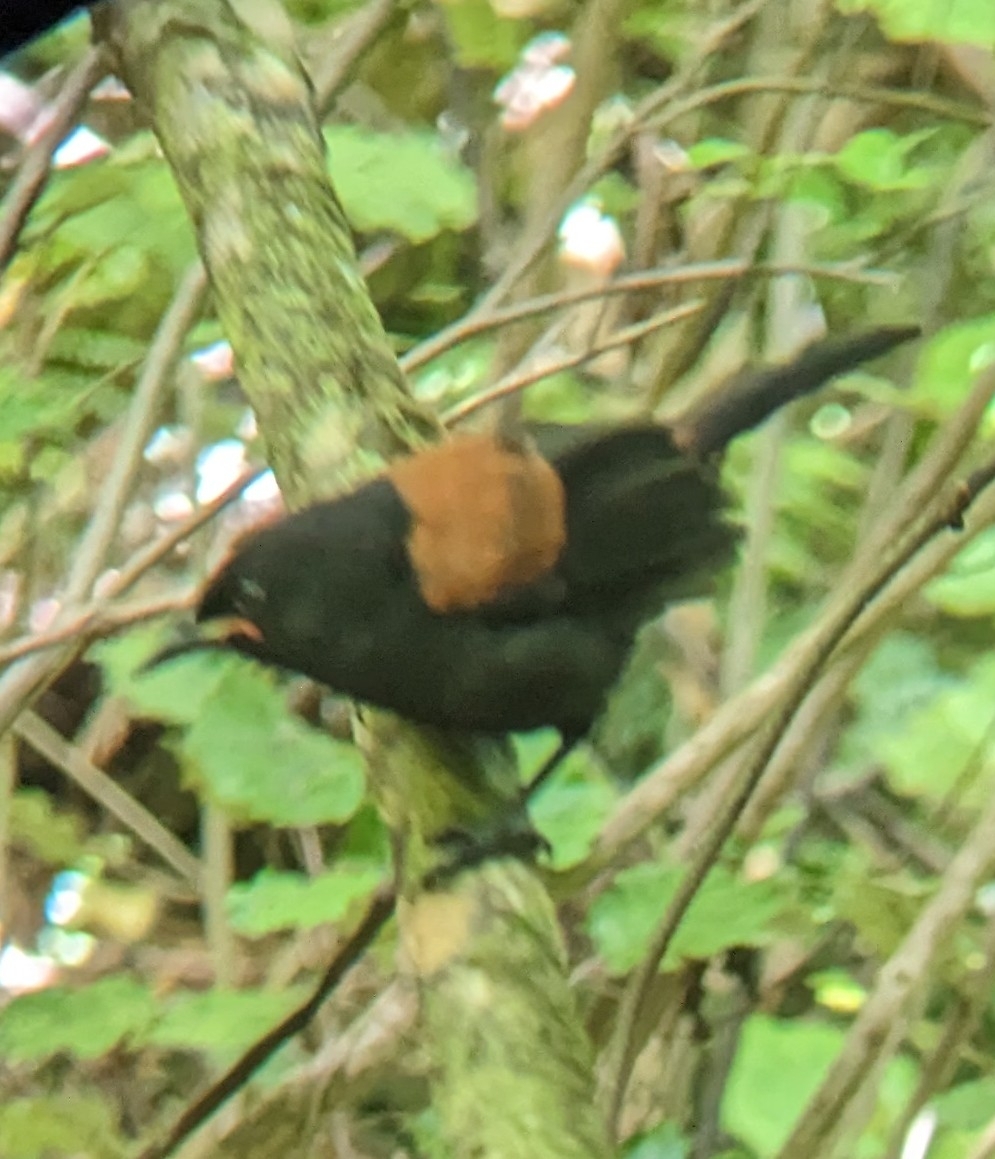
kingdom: Animalia
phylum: Chordata
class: Aves
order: Passeriformes
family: Callaeatidae
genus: Philesturnus
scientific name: Philesturnus carunculatus
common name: South island saddleback
